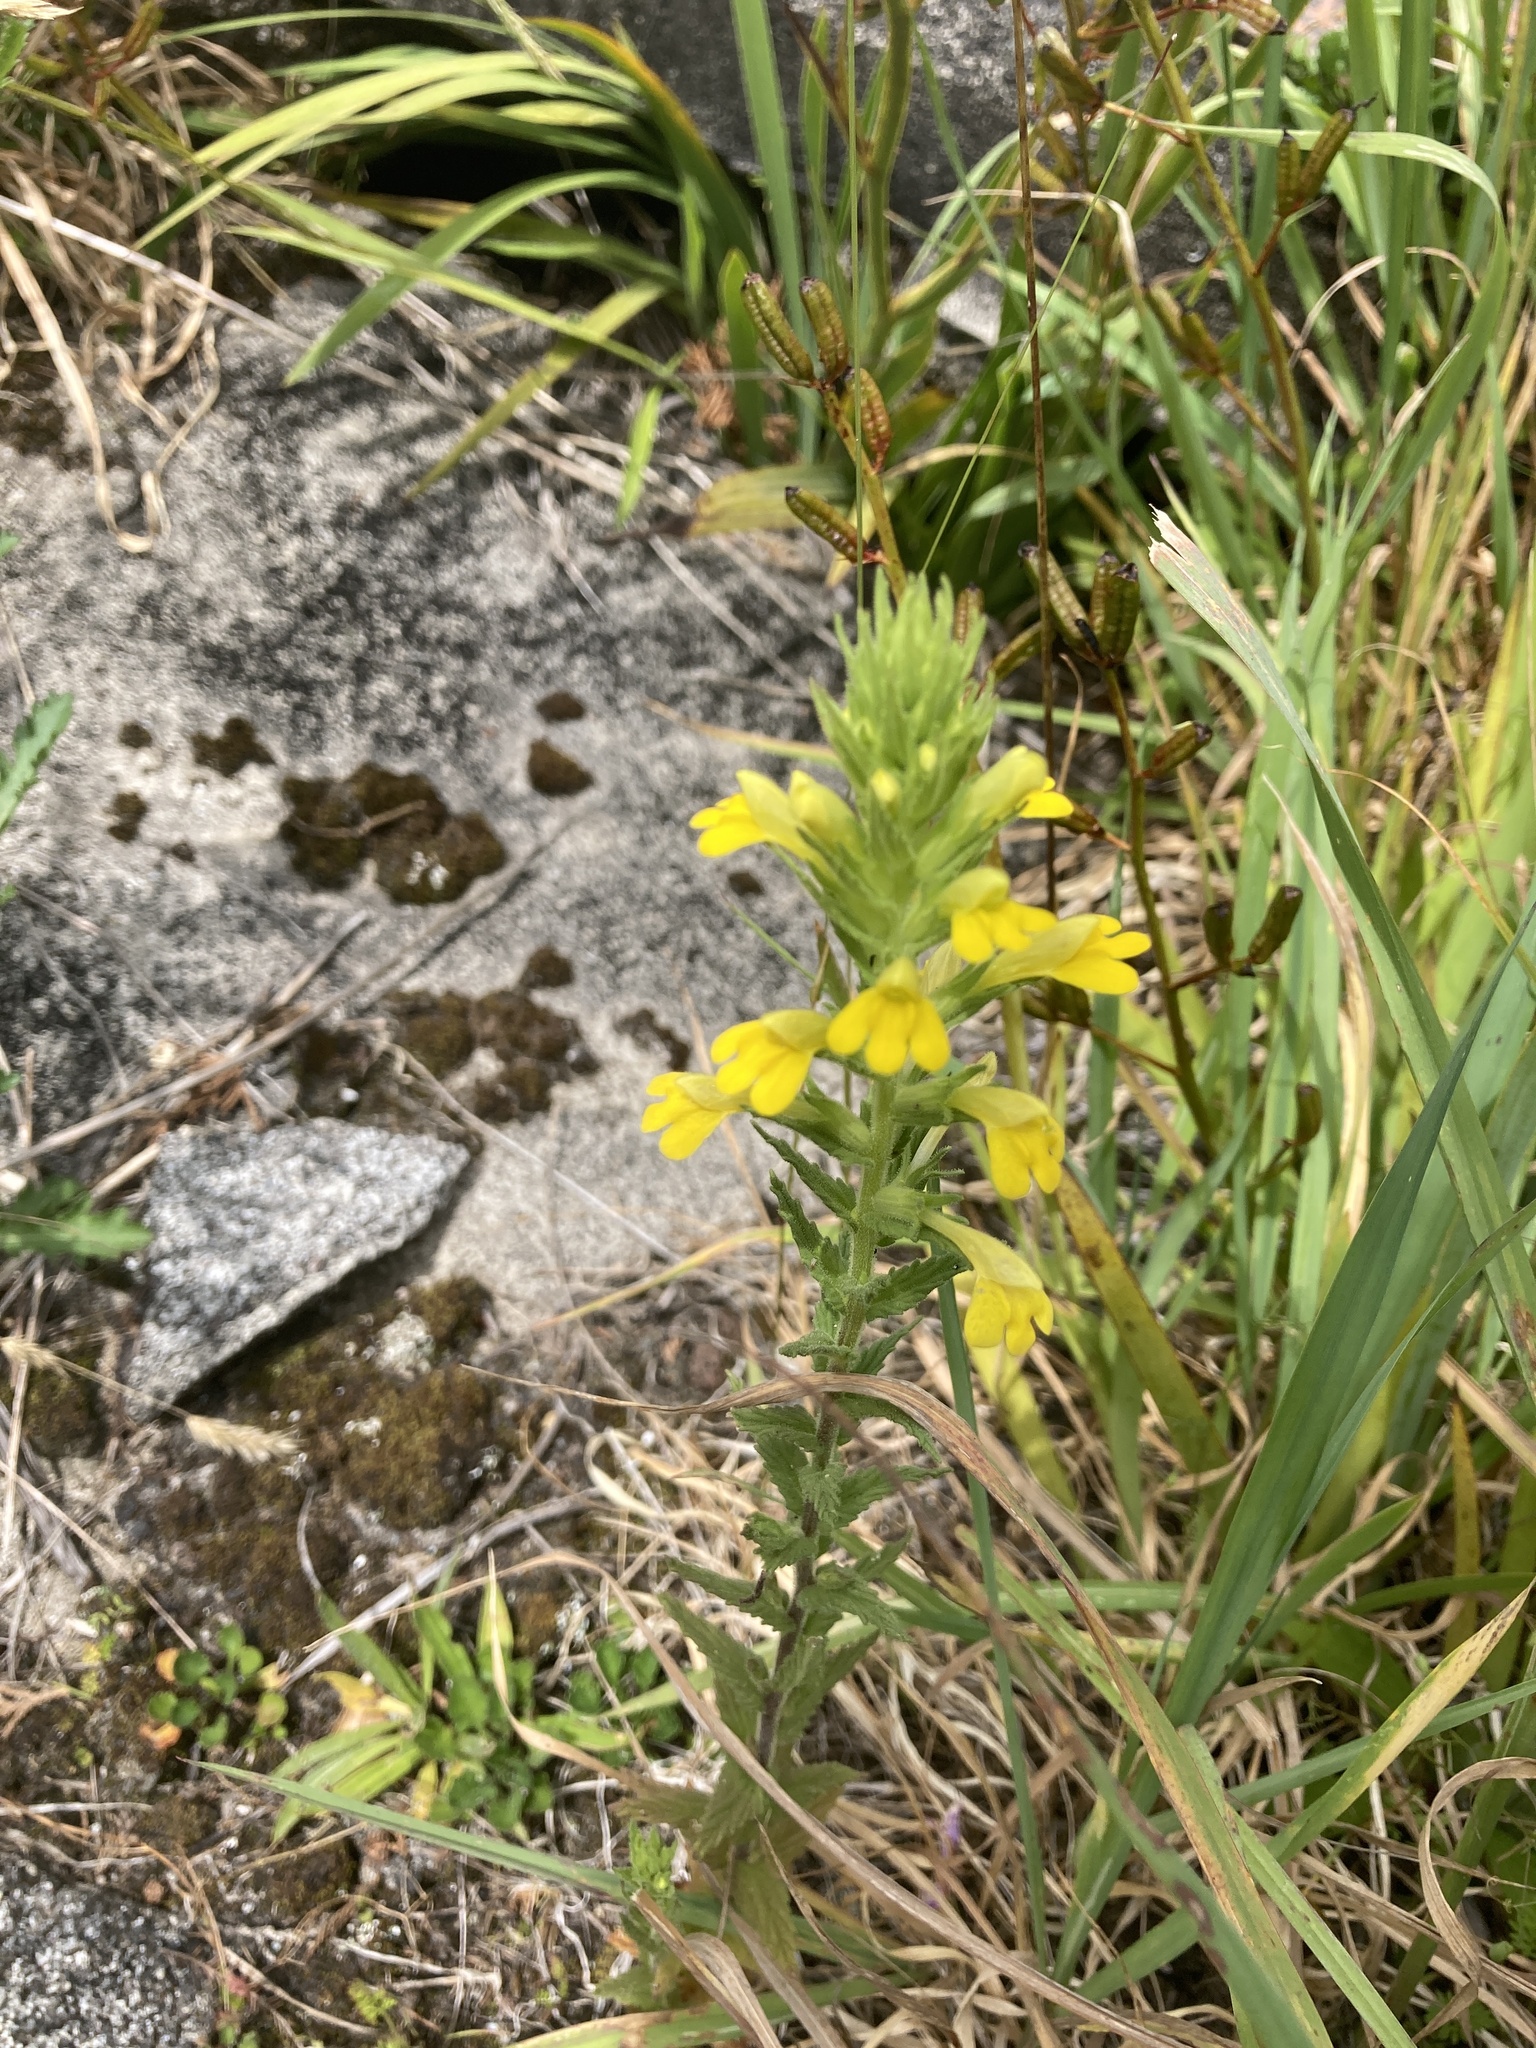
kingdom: Plantae
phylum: Tracheophyta
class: Magnoliopsida
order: Lamiales
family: Orobanchaceae
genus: Bellardia
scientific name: Bellardia viscosa
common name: Sticky parentucellia
